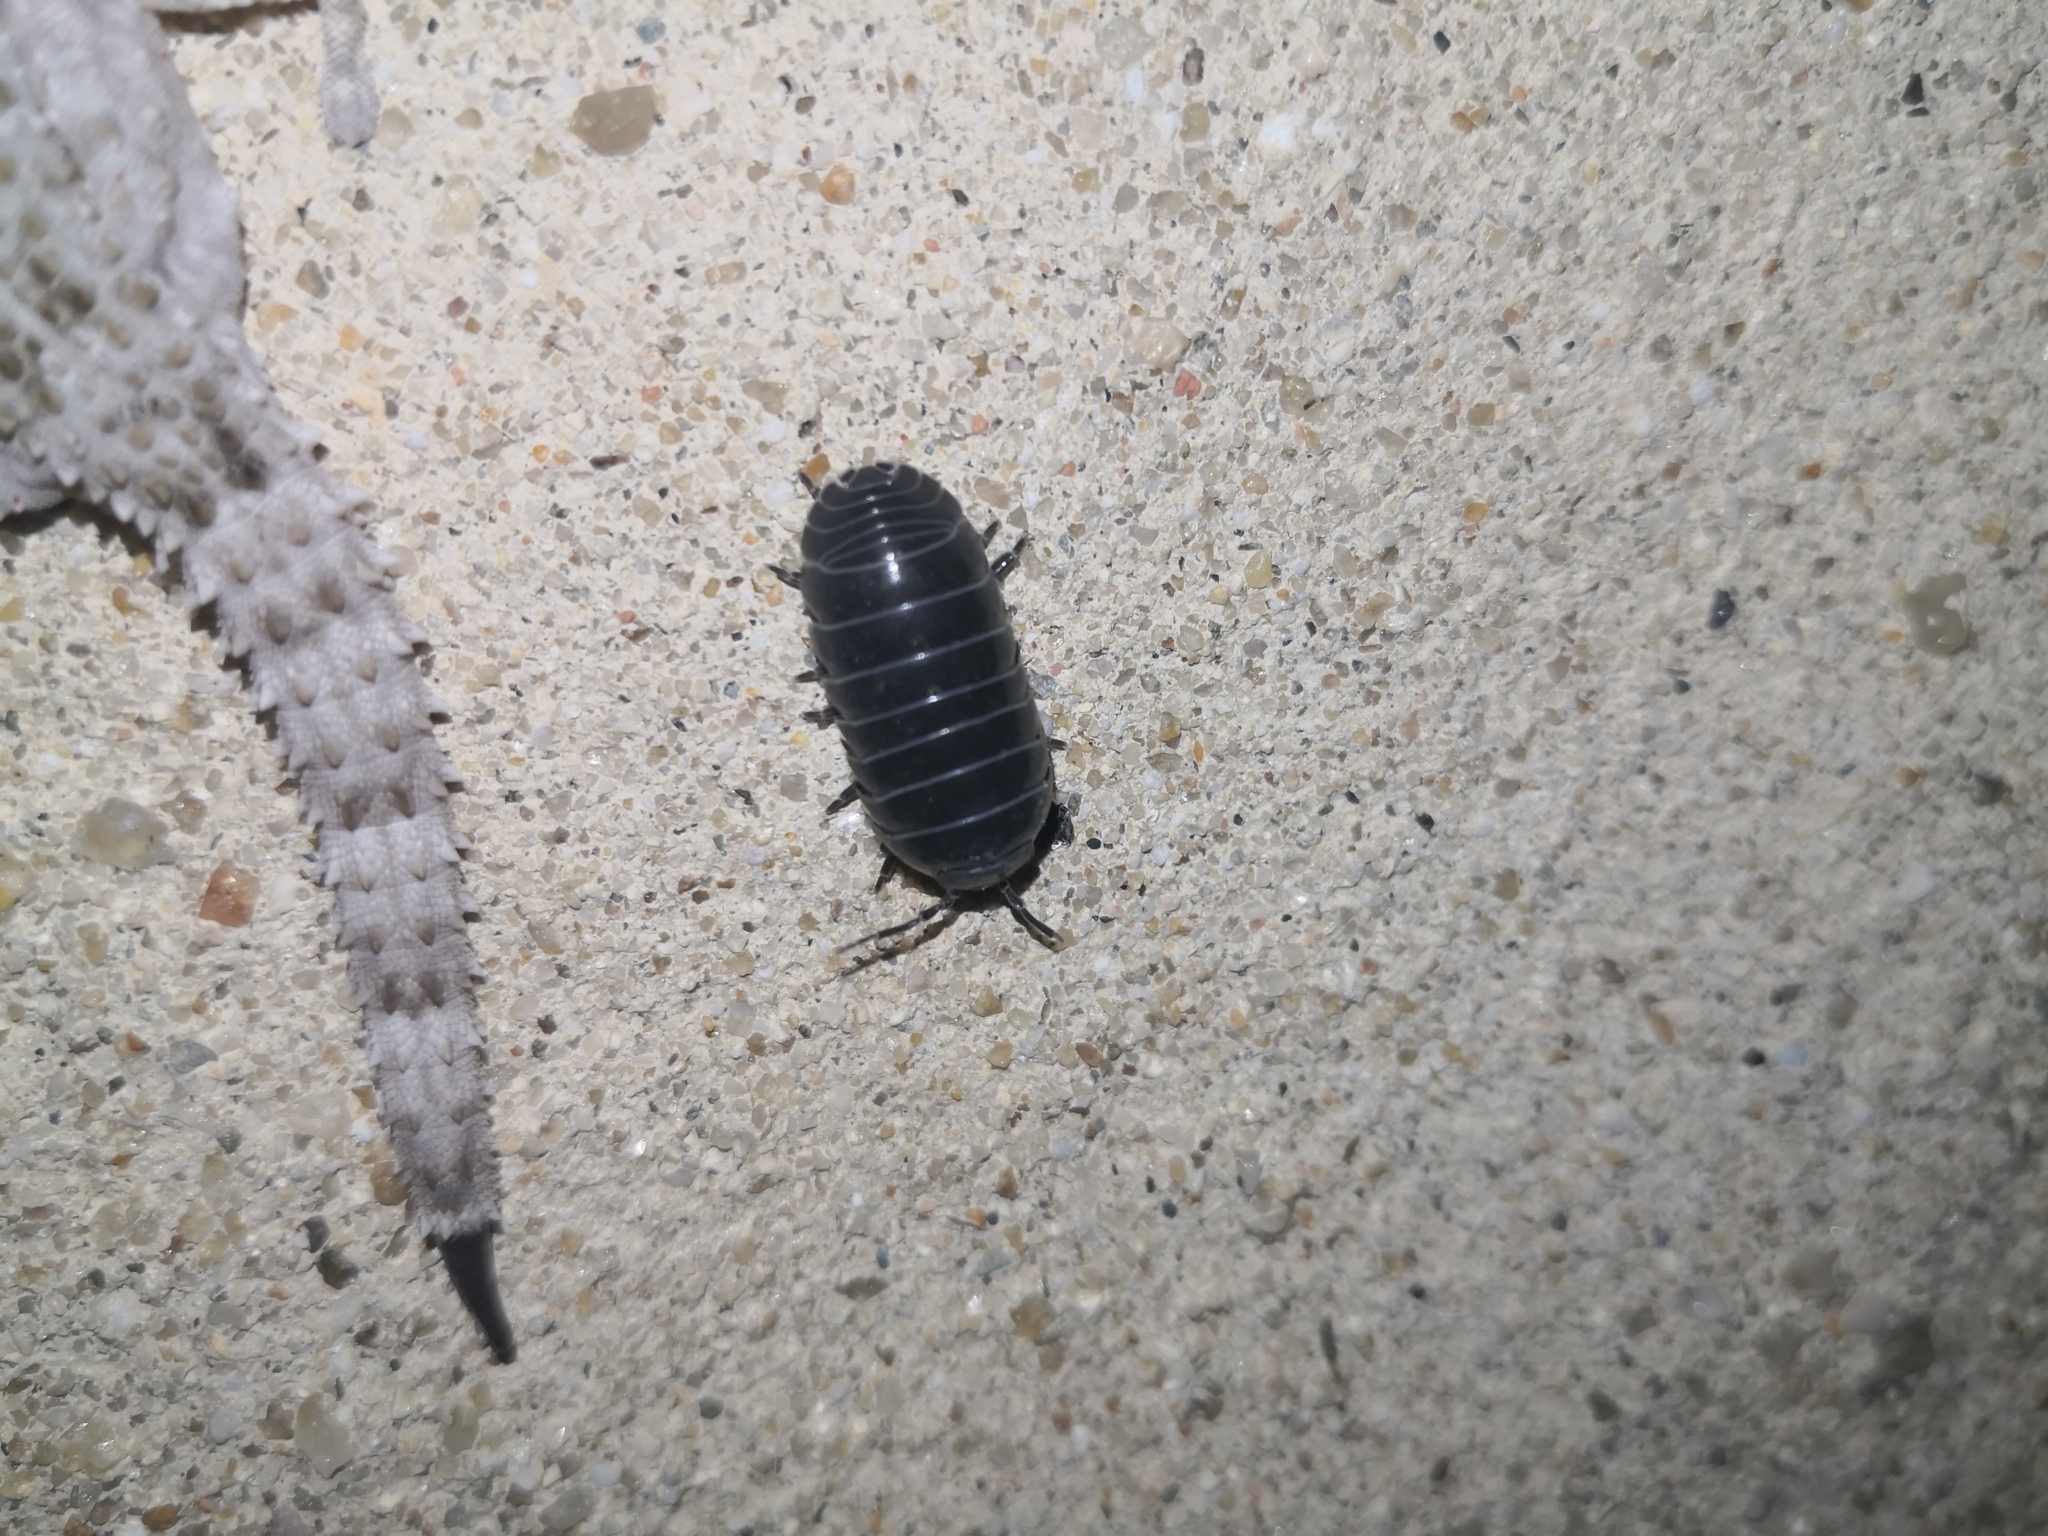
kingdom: Animalia
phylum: Arthropoda
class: Malacostraca
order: Isopoda
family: Armadillidiidae
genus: Armadillidium
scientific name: Armadillidium vulgare
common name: Common pill woodlouse
